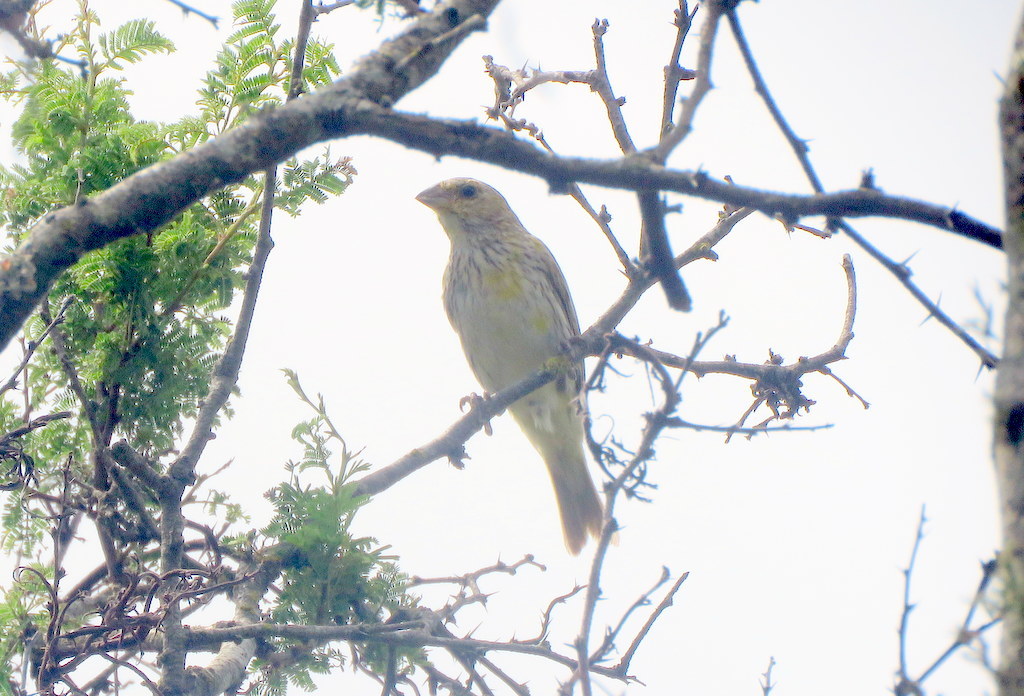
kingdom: Animalia
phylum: Chordata
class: Aves
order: Passeriformes
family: Thraupidae
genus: Sicalis
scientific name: Sicalis flaveola
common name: Saffron finch
